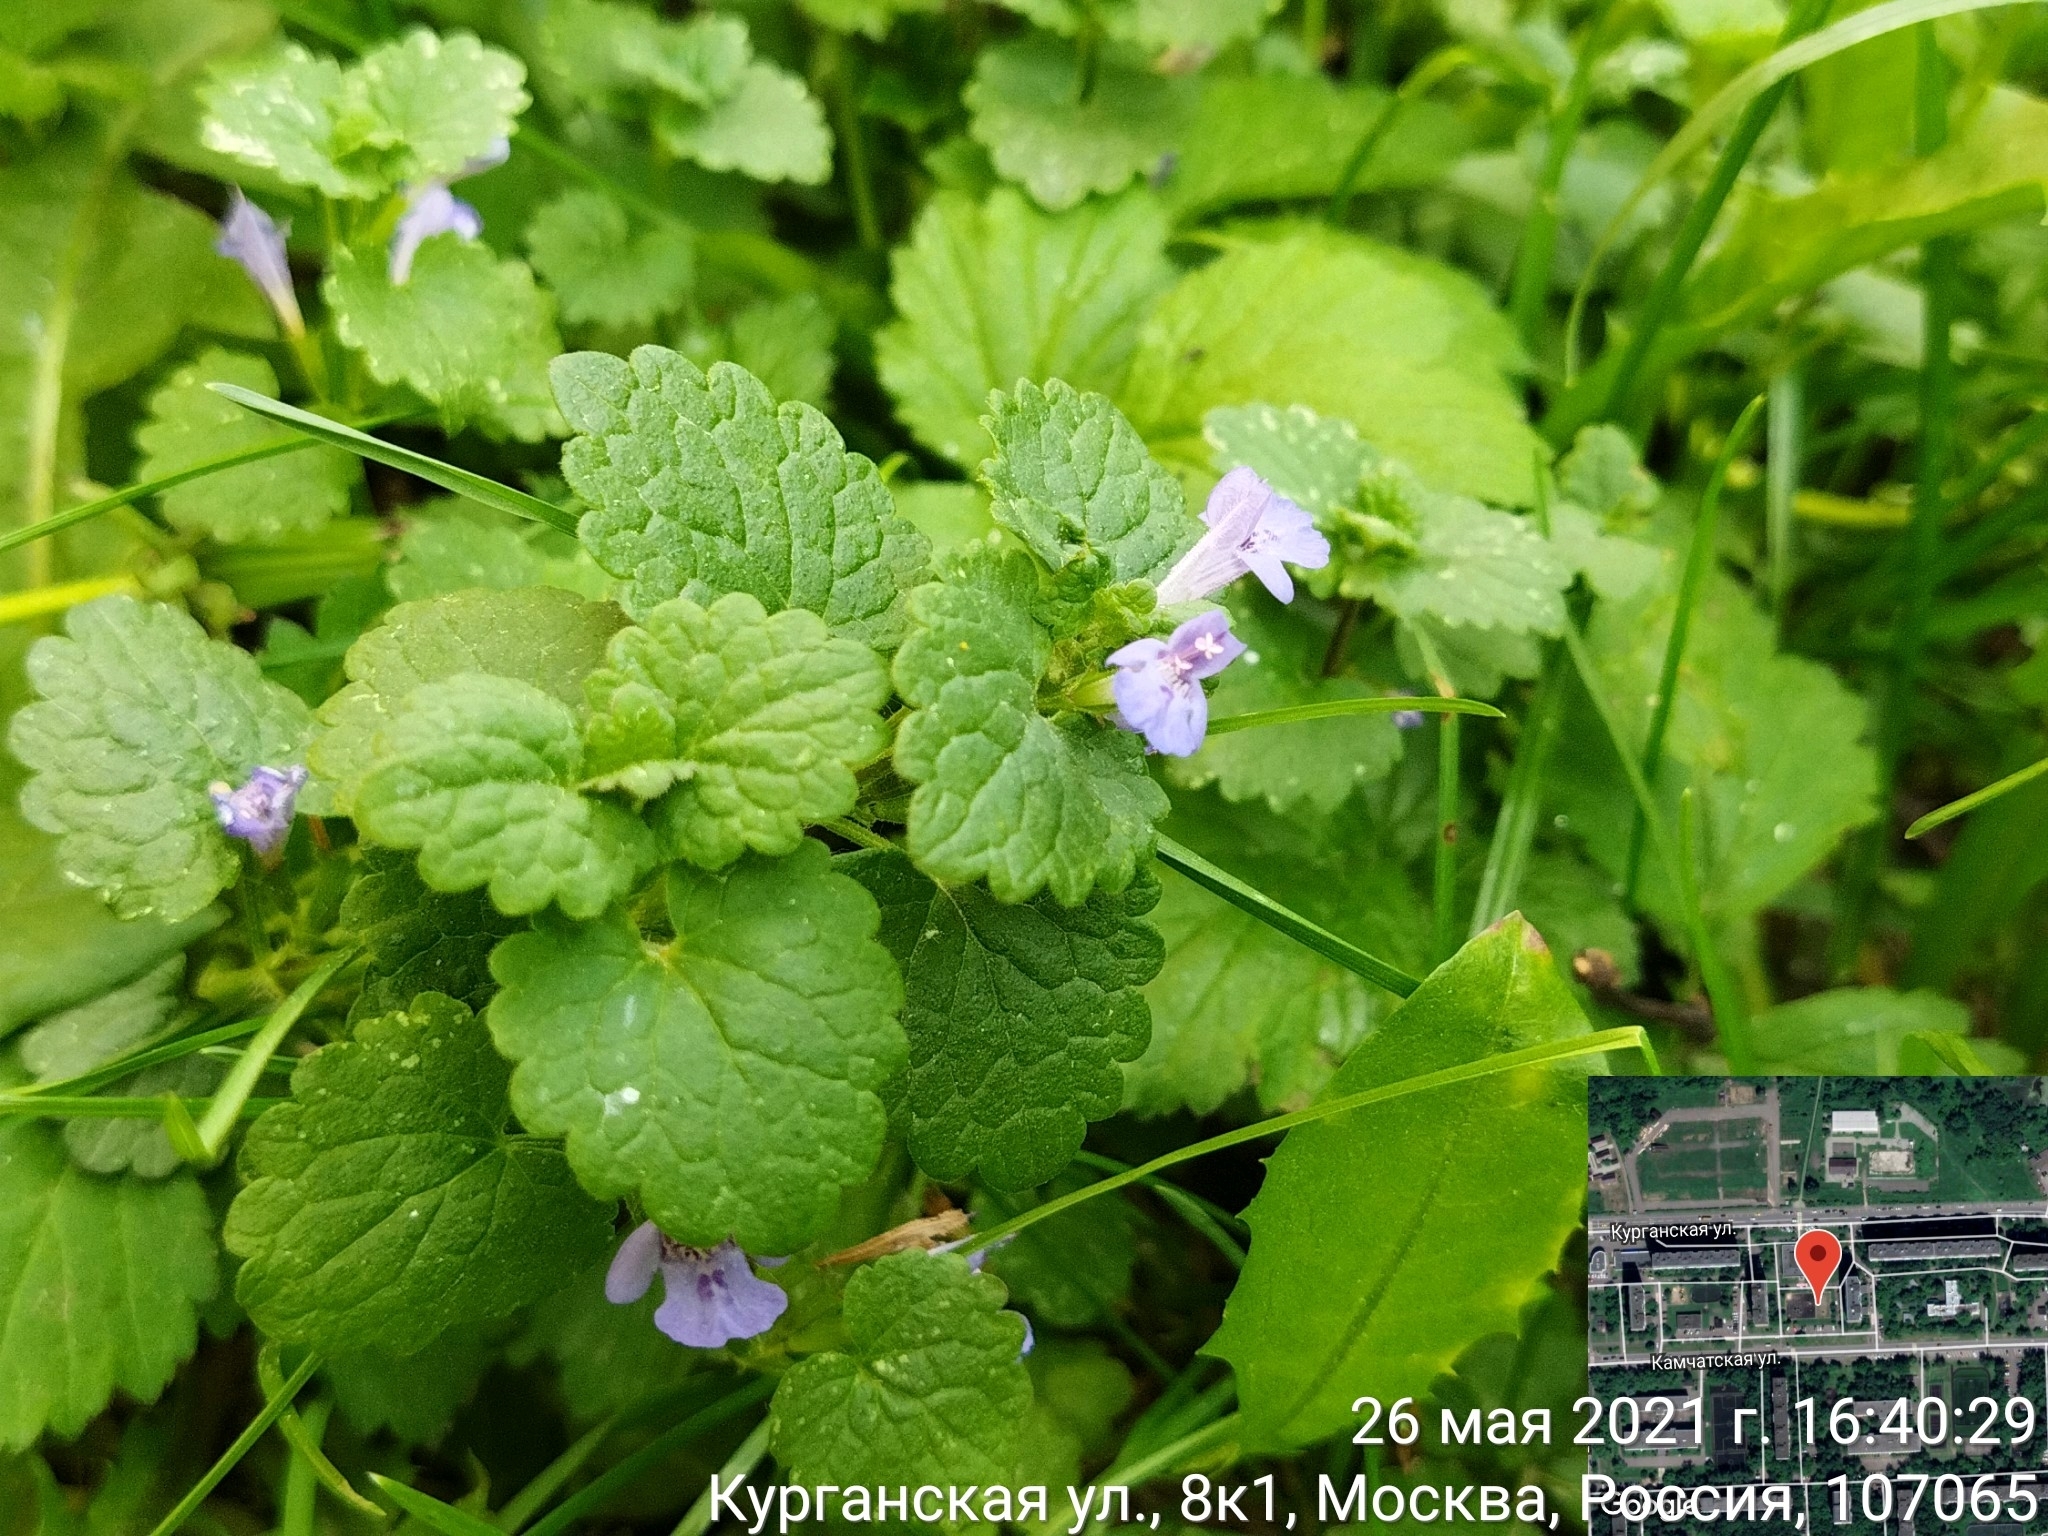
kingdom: Plantae
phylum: Tracheophyta
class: Magnoliopsida
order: Lamiales
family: Lamiaceae
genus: Glechoma
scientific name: Glechoma hederacea
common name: Ground ivy
